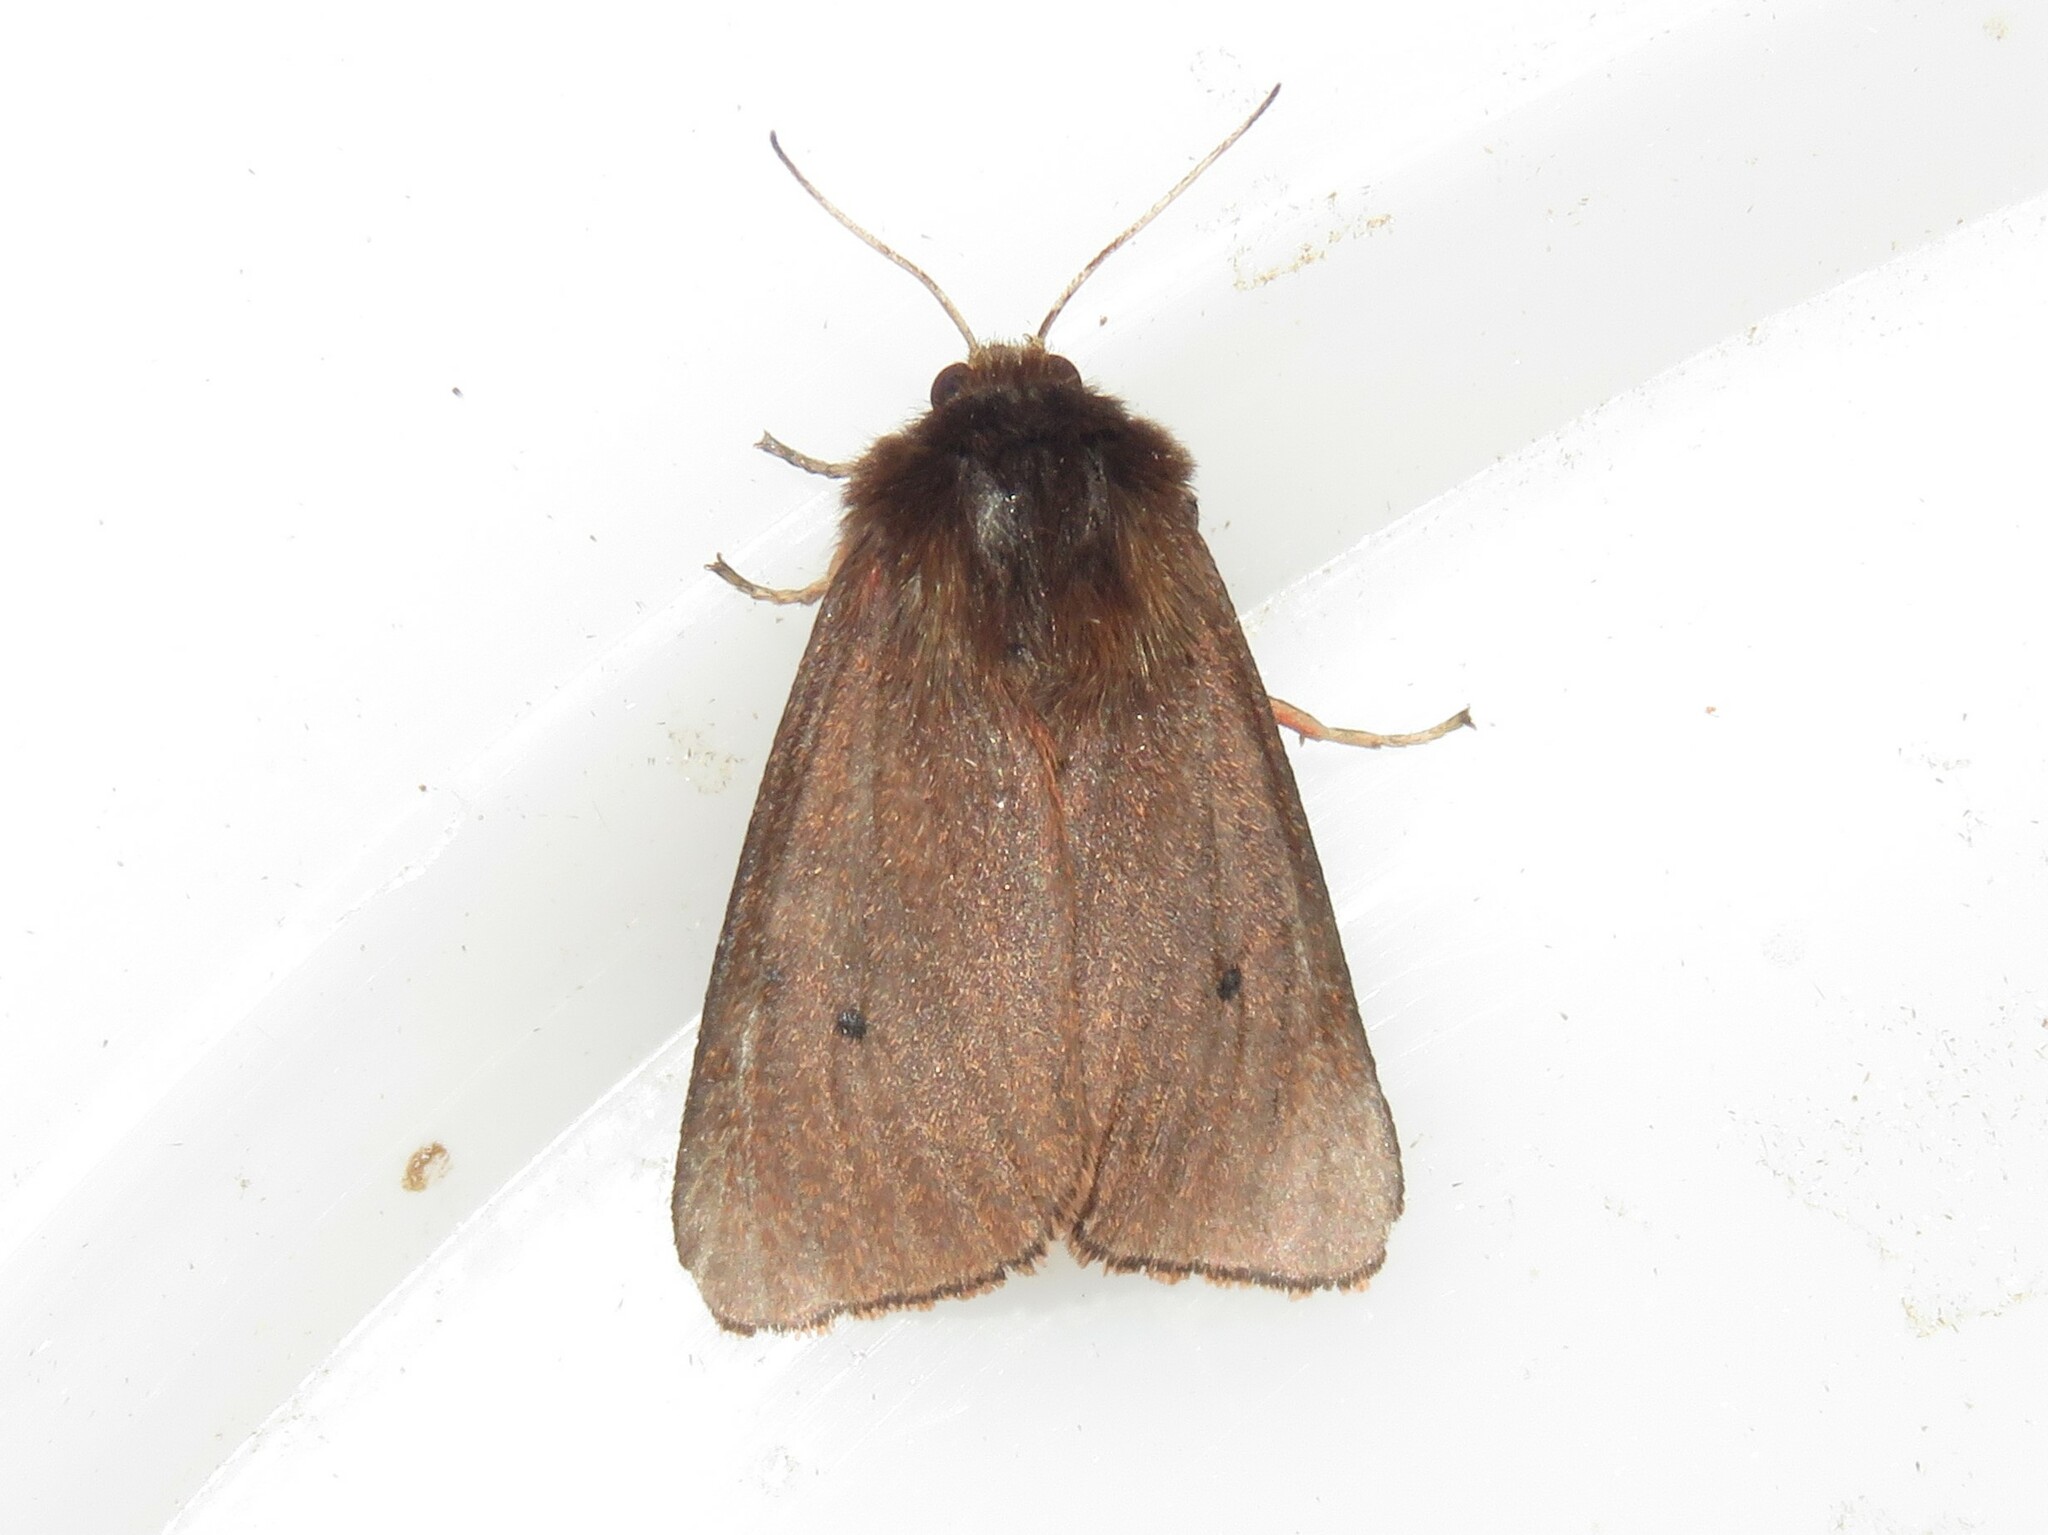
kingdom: Animalia
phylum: Arthropoda
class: Insecta
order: Lepidoptera
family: Erebidae
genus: Phragmatobia
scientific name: Phragmatobia fuliginosa
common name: Ruby tiger
